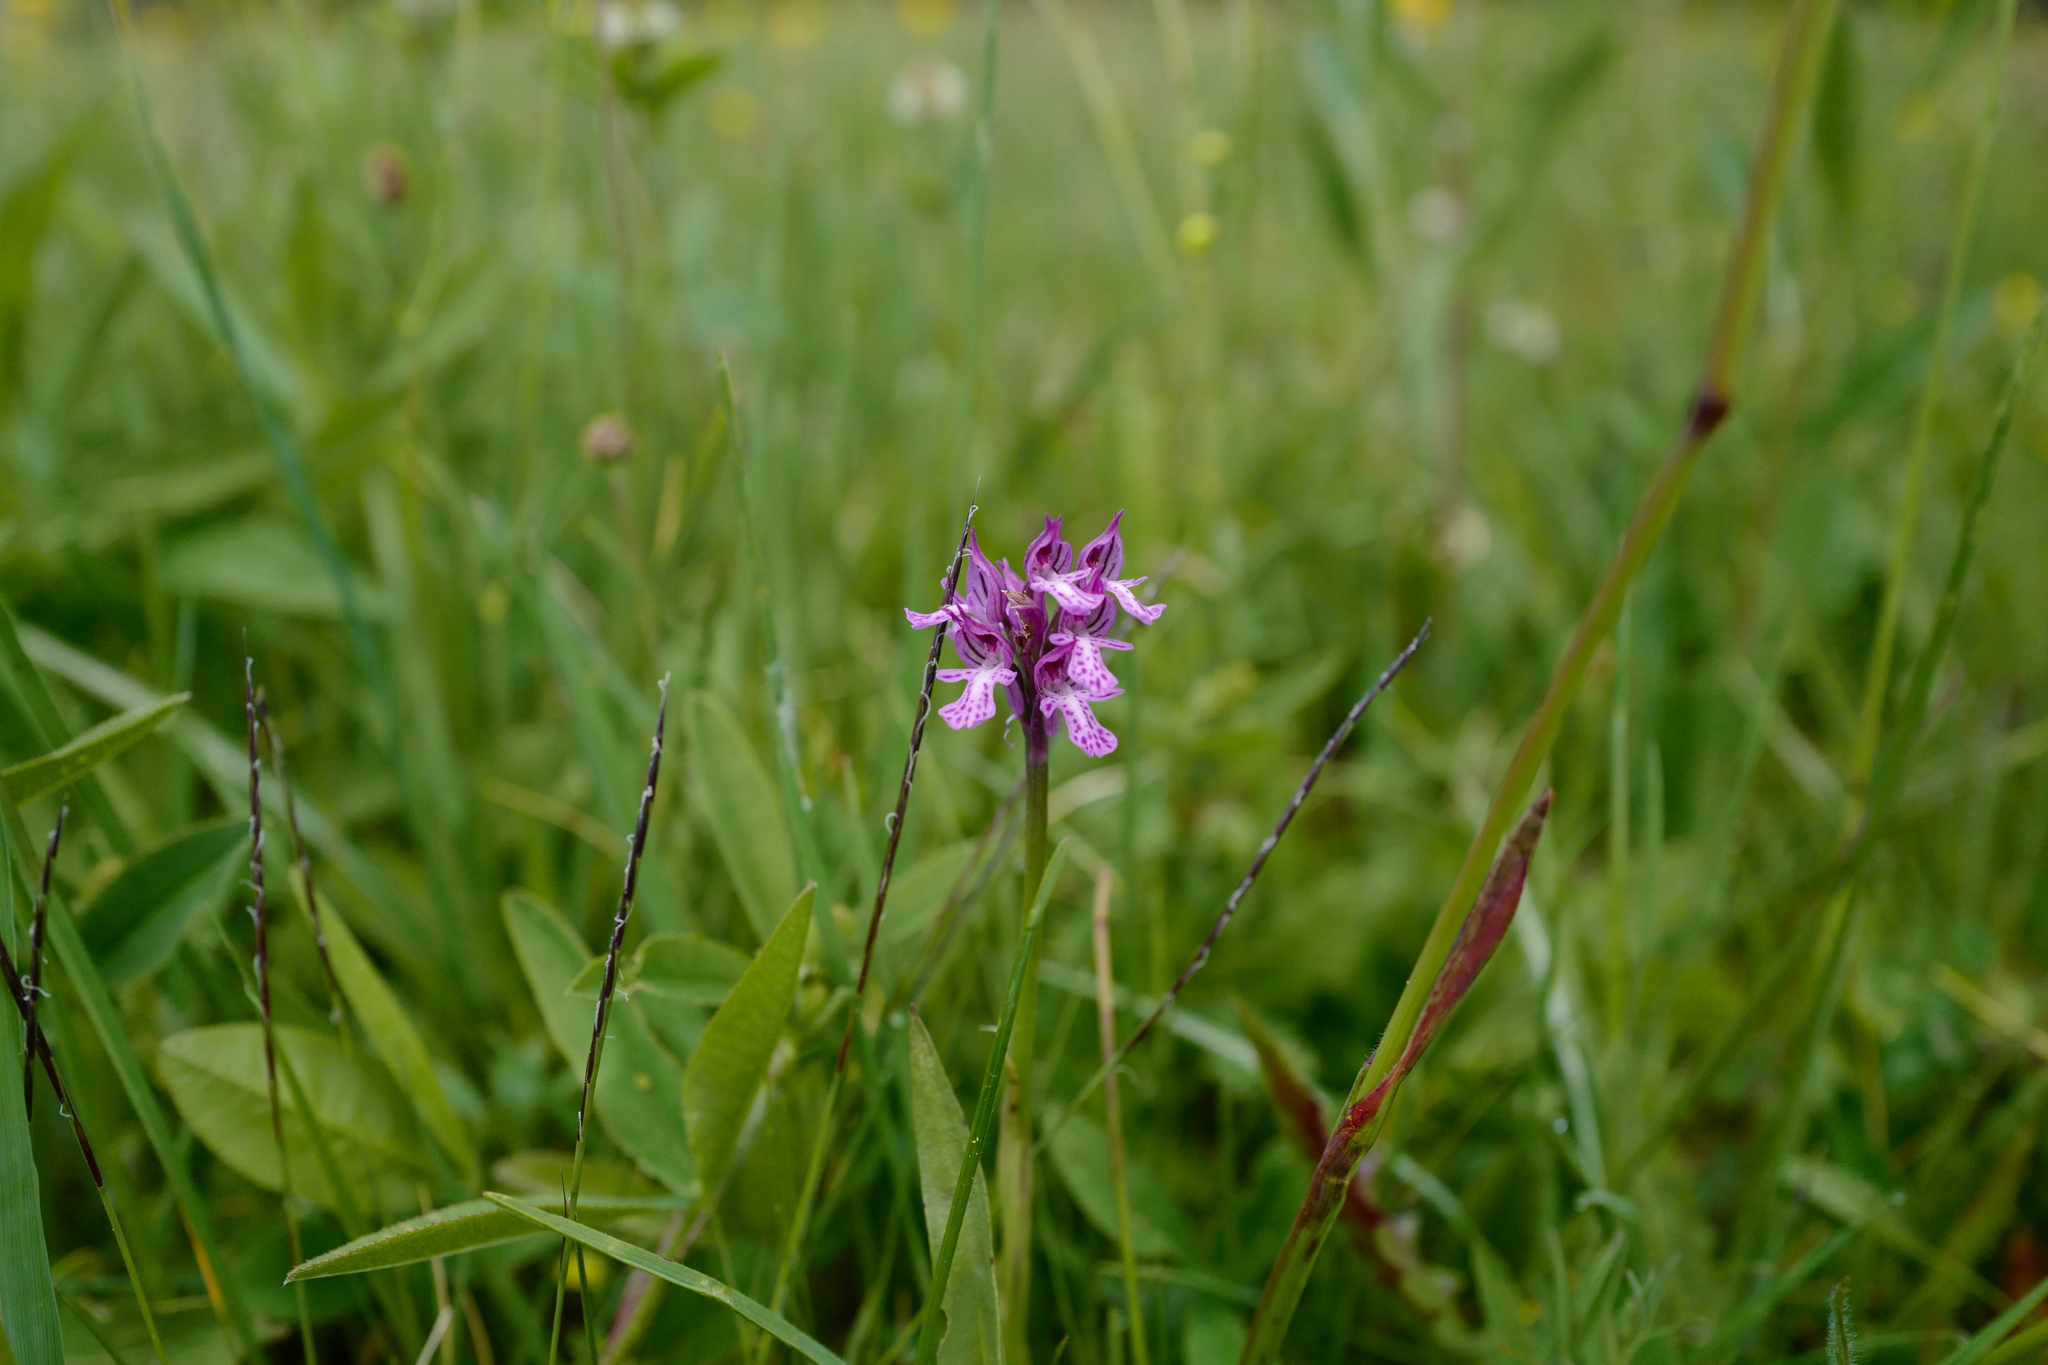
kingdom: Plantae
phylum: Tracheophyta
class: Liliopsida
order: Asparagales
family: Orchidaceae
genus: Neotinea
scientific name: Neotinea tridentata
